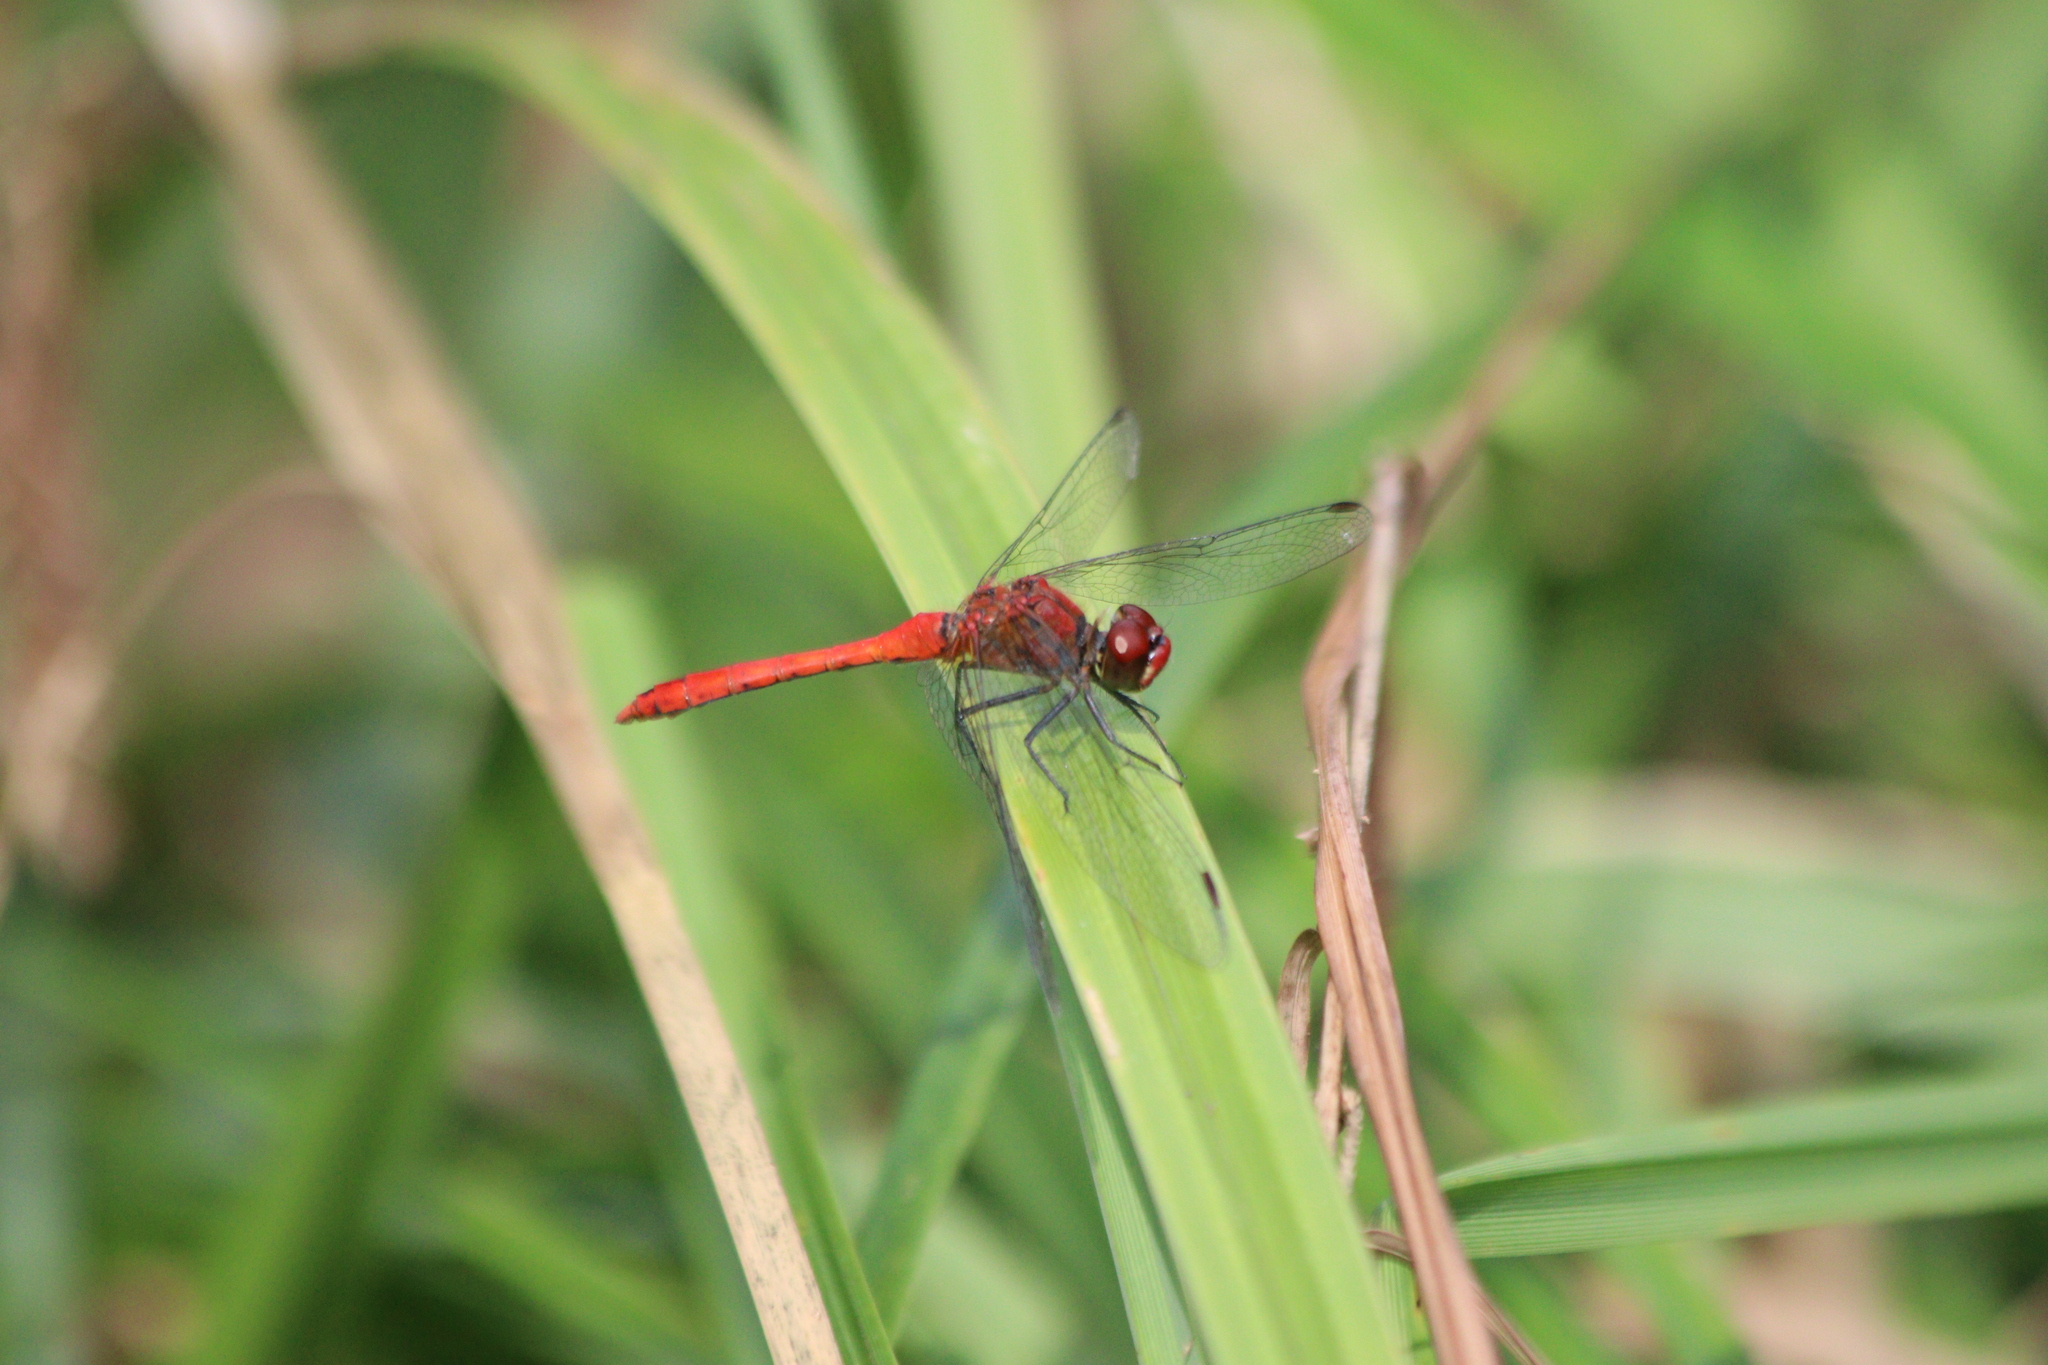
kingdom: Animalia
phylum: Arthropoda
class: Insecta
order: Odonata
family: Libellulidae
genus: Sympetrum
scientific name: Sympetrum sanguineum
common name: Ruddy darter
